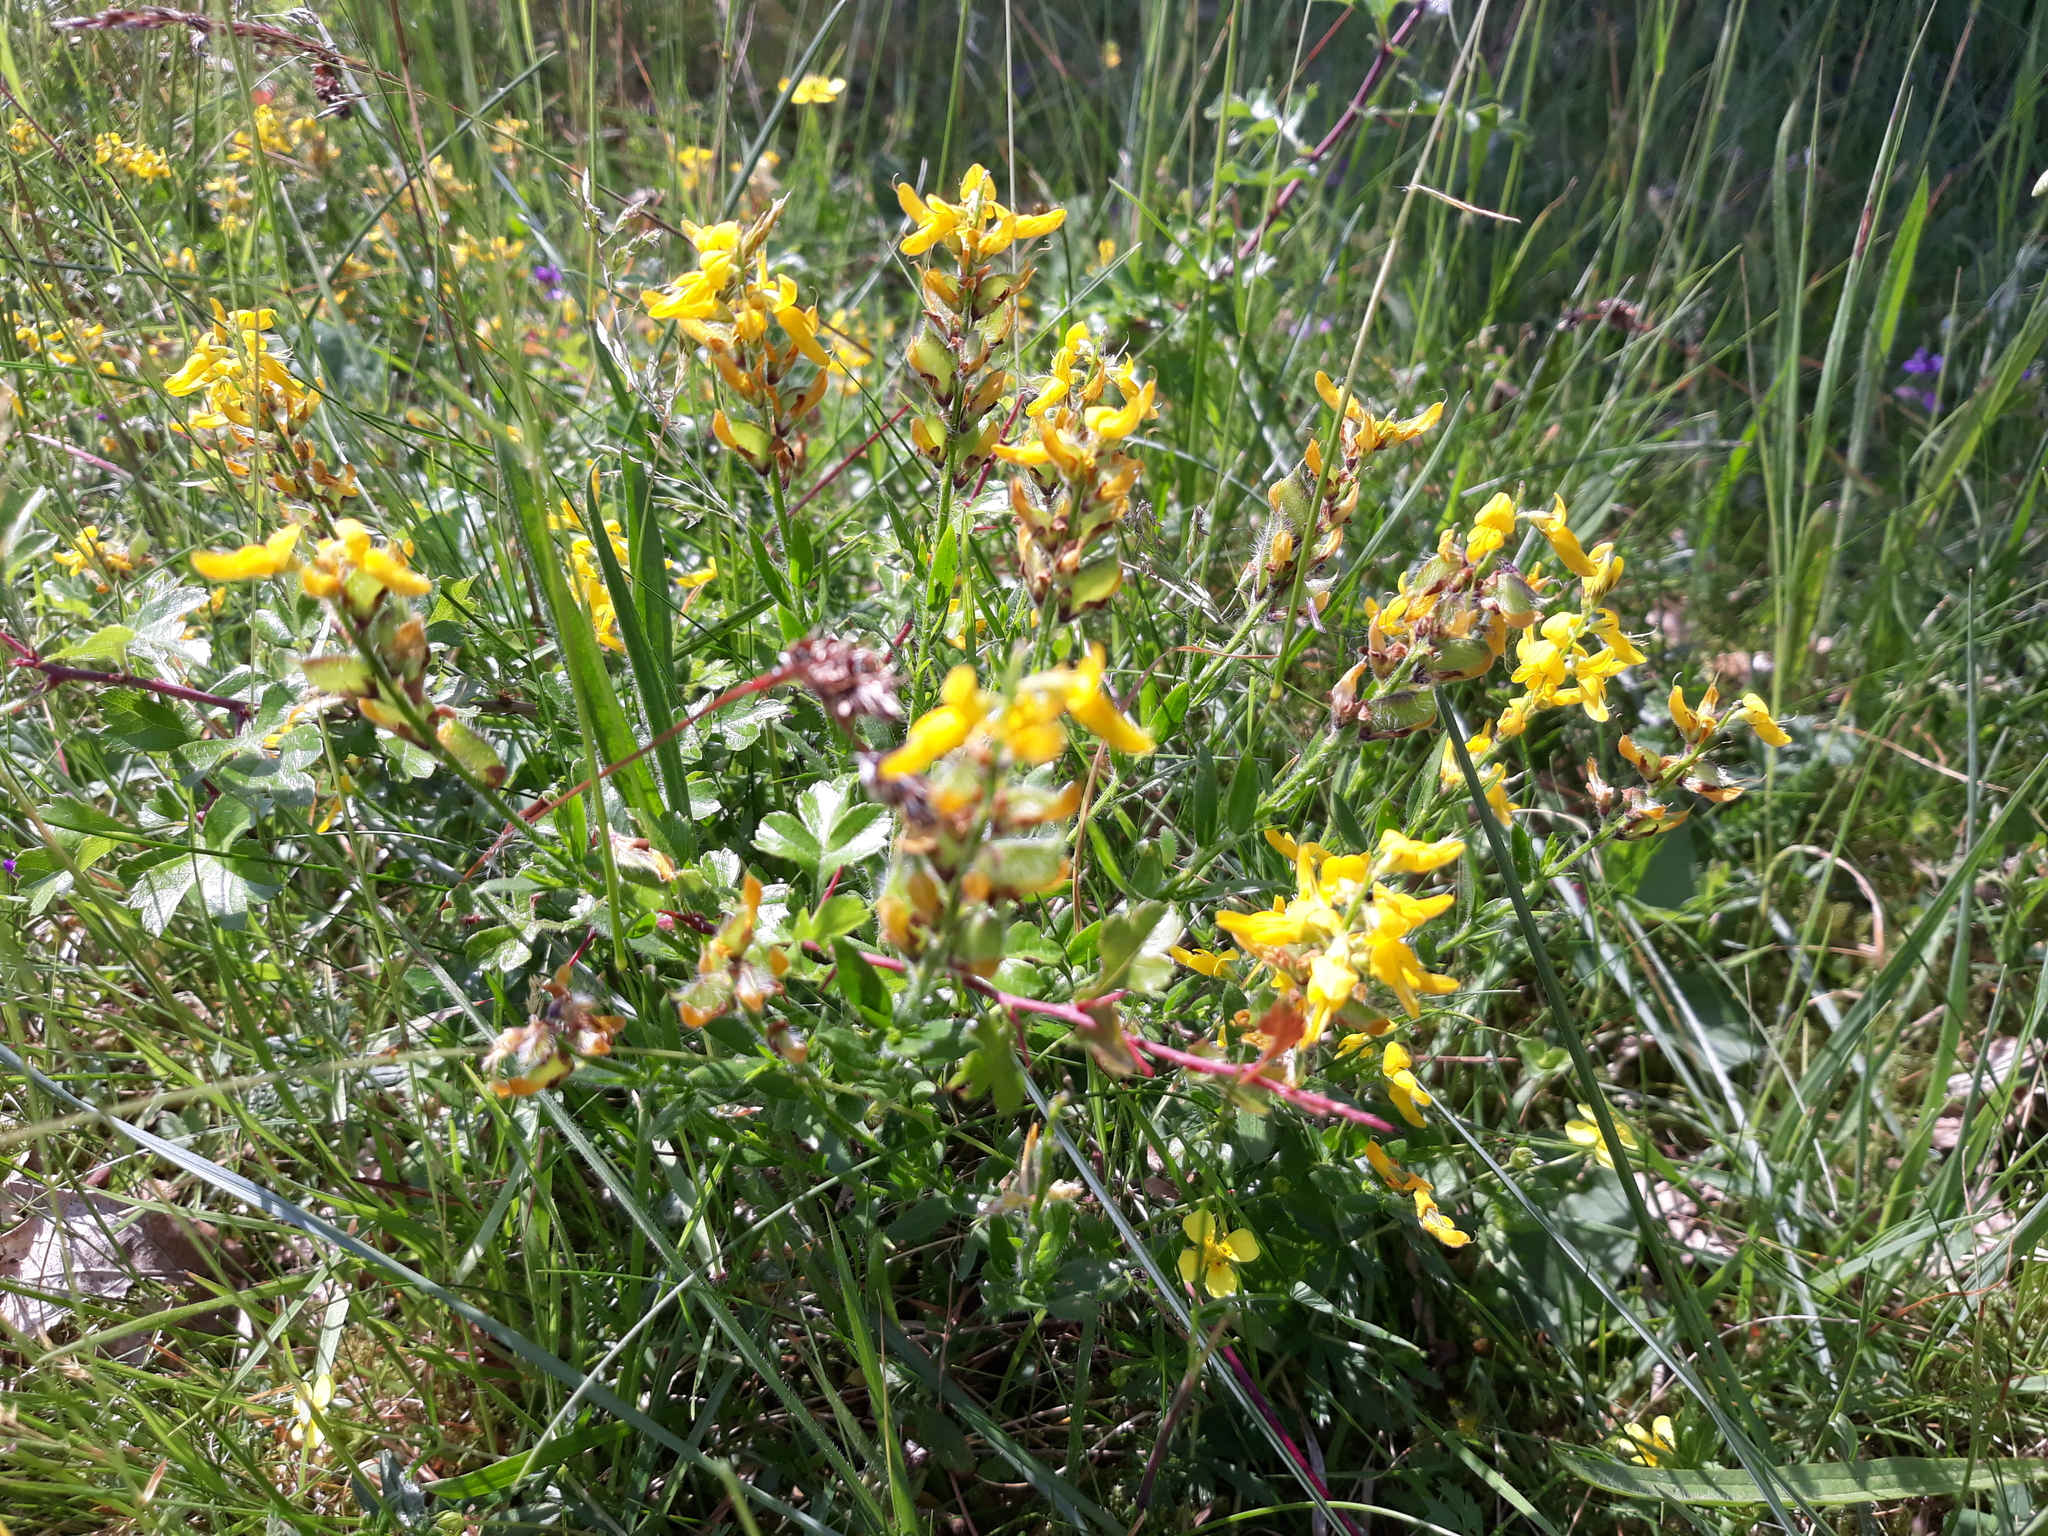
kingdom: Plantae
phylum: Tracheophyta
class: Magnoliopsida
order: Fabales
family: Fabaceae
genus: Genista
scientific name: Genista germanica
